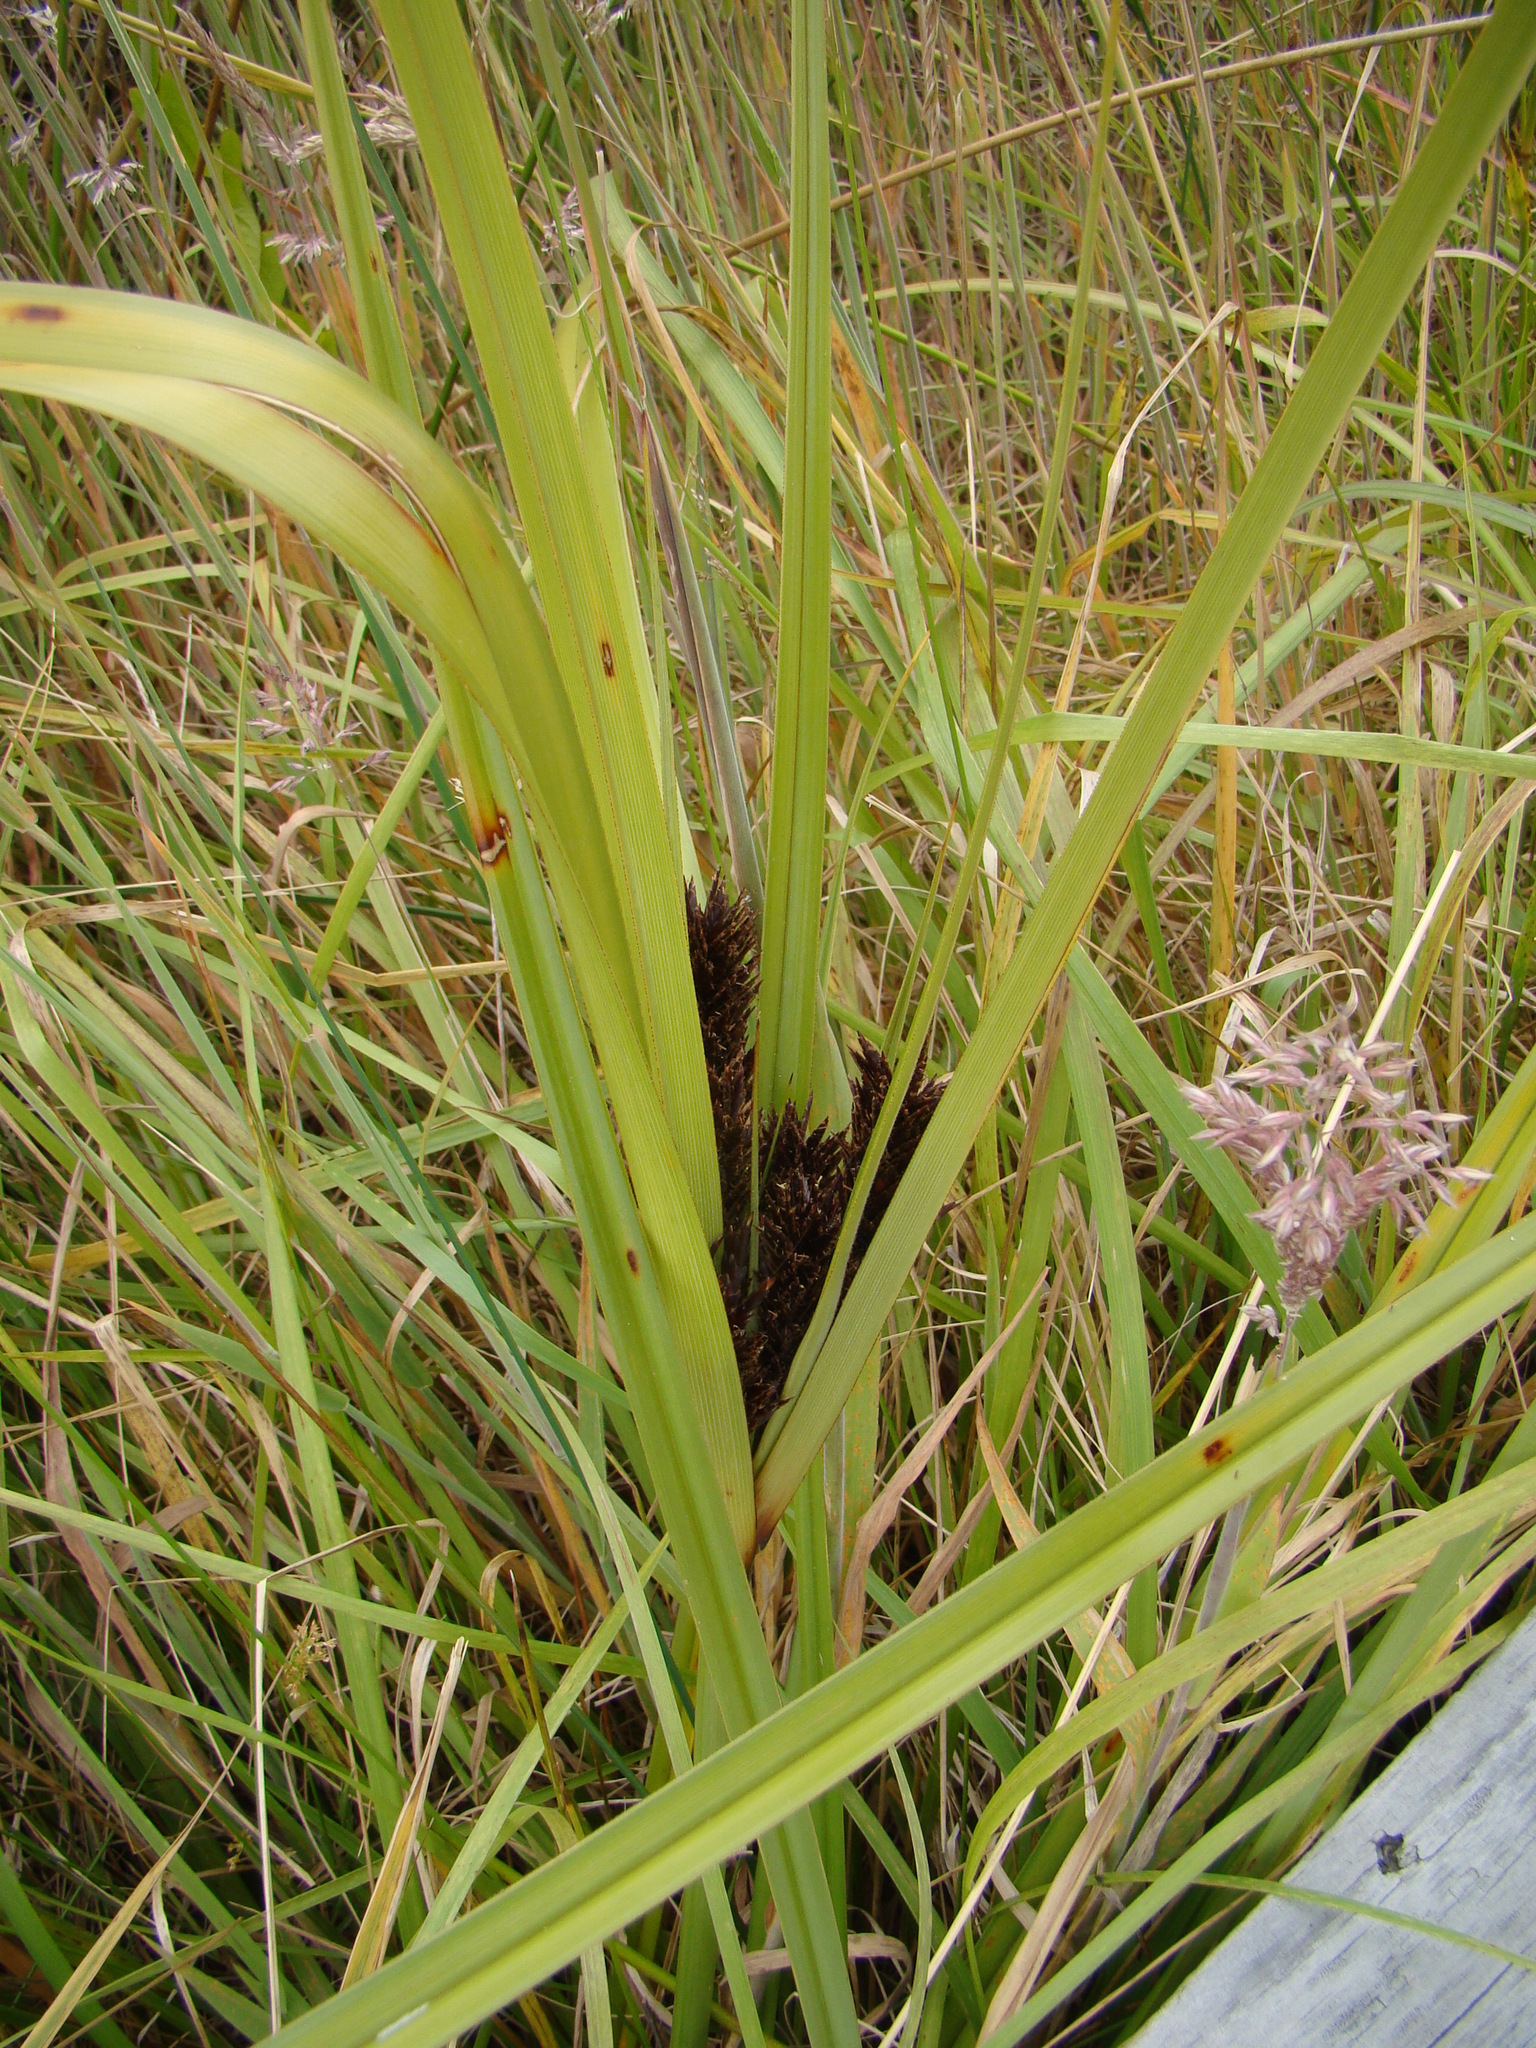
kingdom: Plantae
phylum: Tracheophyta
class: Liliopsida
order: Poales
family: Cyperaceae
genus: Cyperus
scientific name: Cyperus ustulatus
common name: Giant umbrella-sedge
